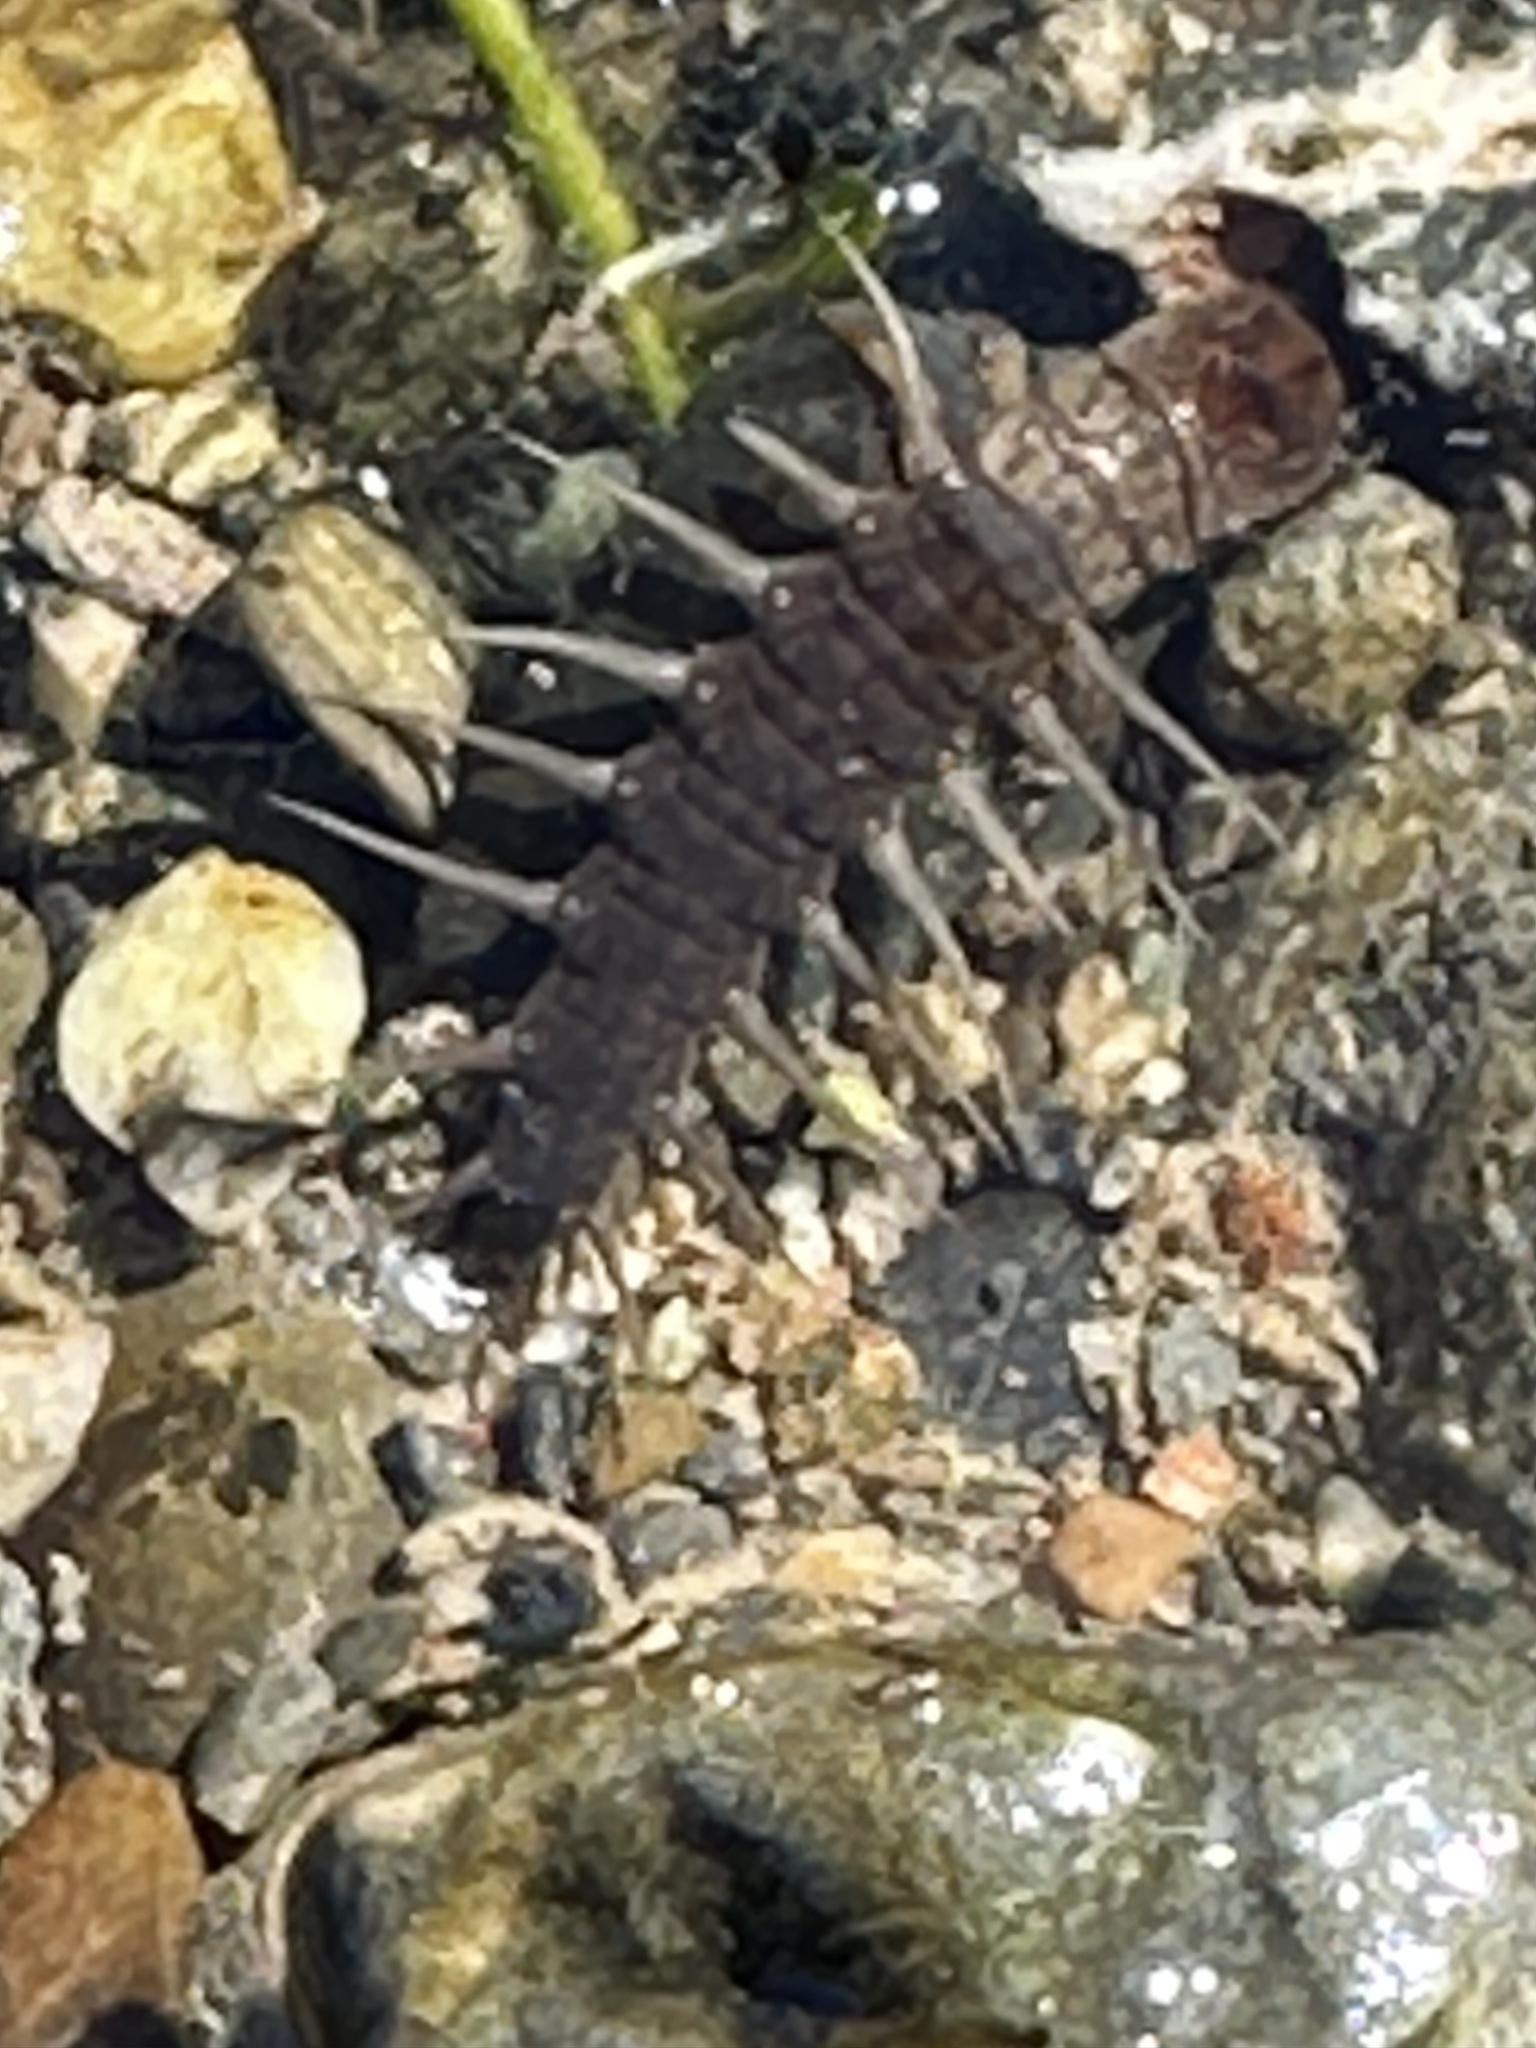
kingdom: Animalia
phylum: Arthropoda
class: Insecta
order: Megaloptera
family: Corydalidae
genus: Neohermes
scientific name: Neohermes filicornis
